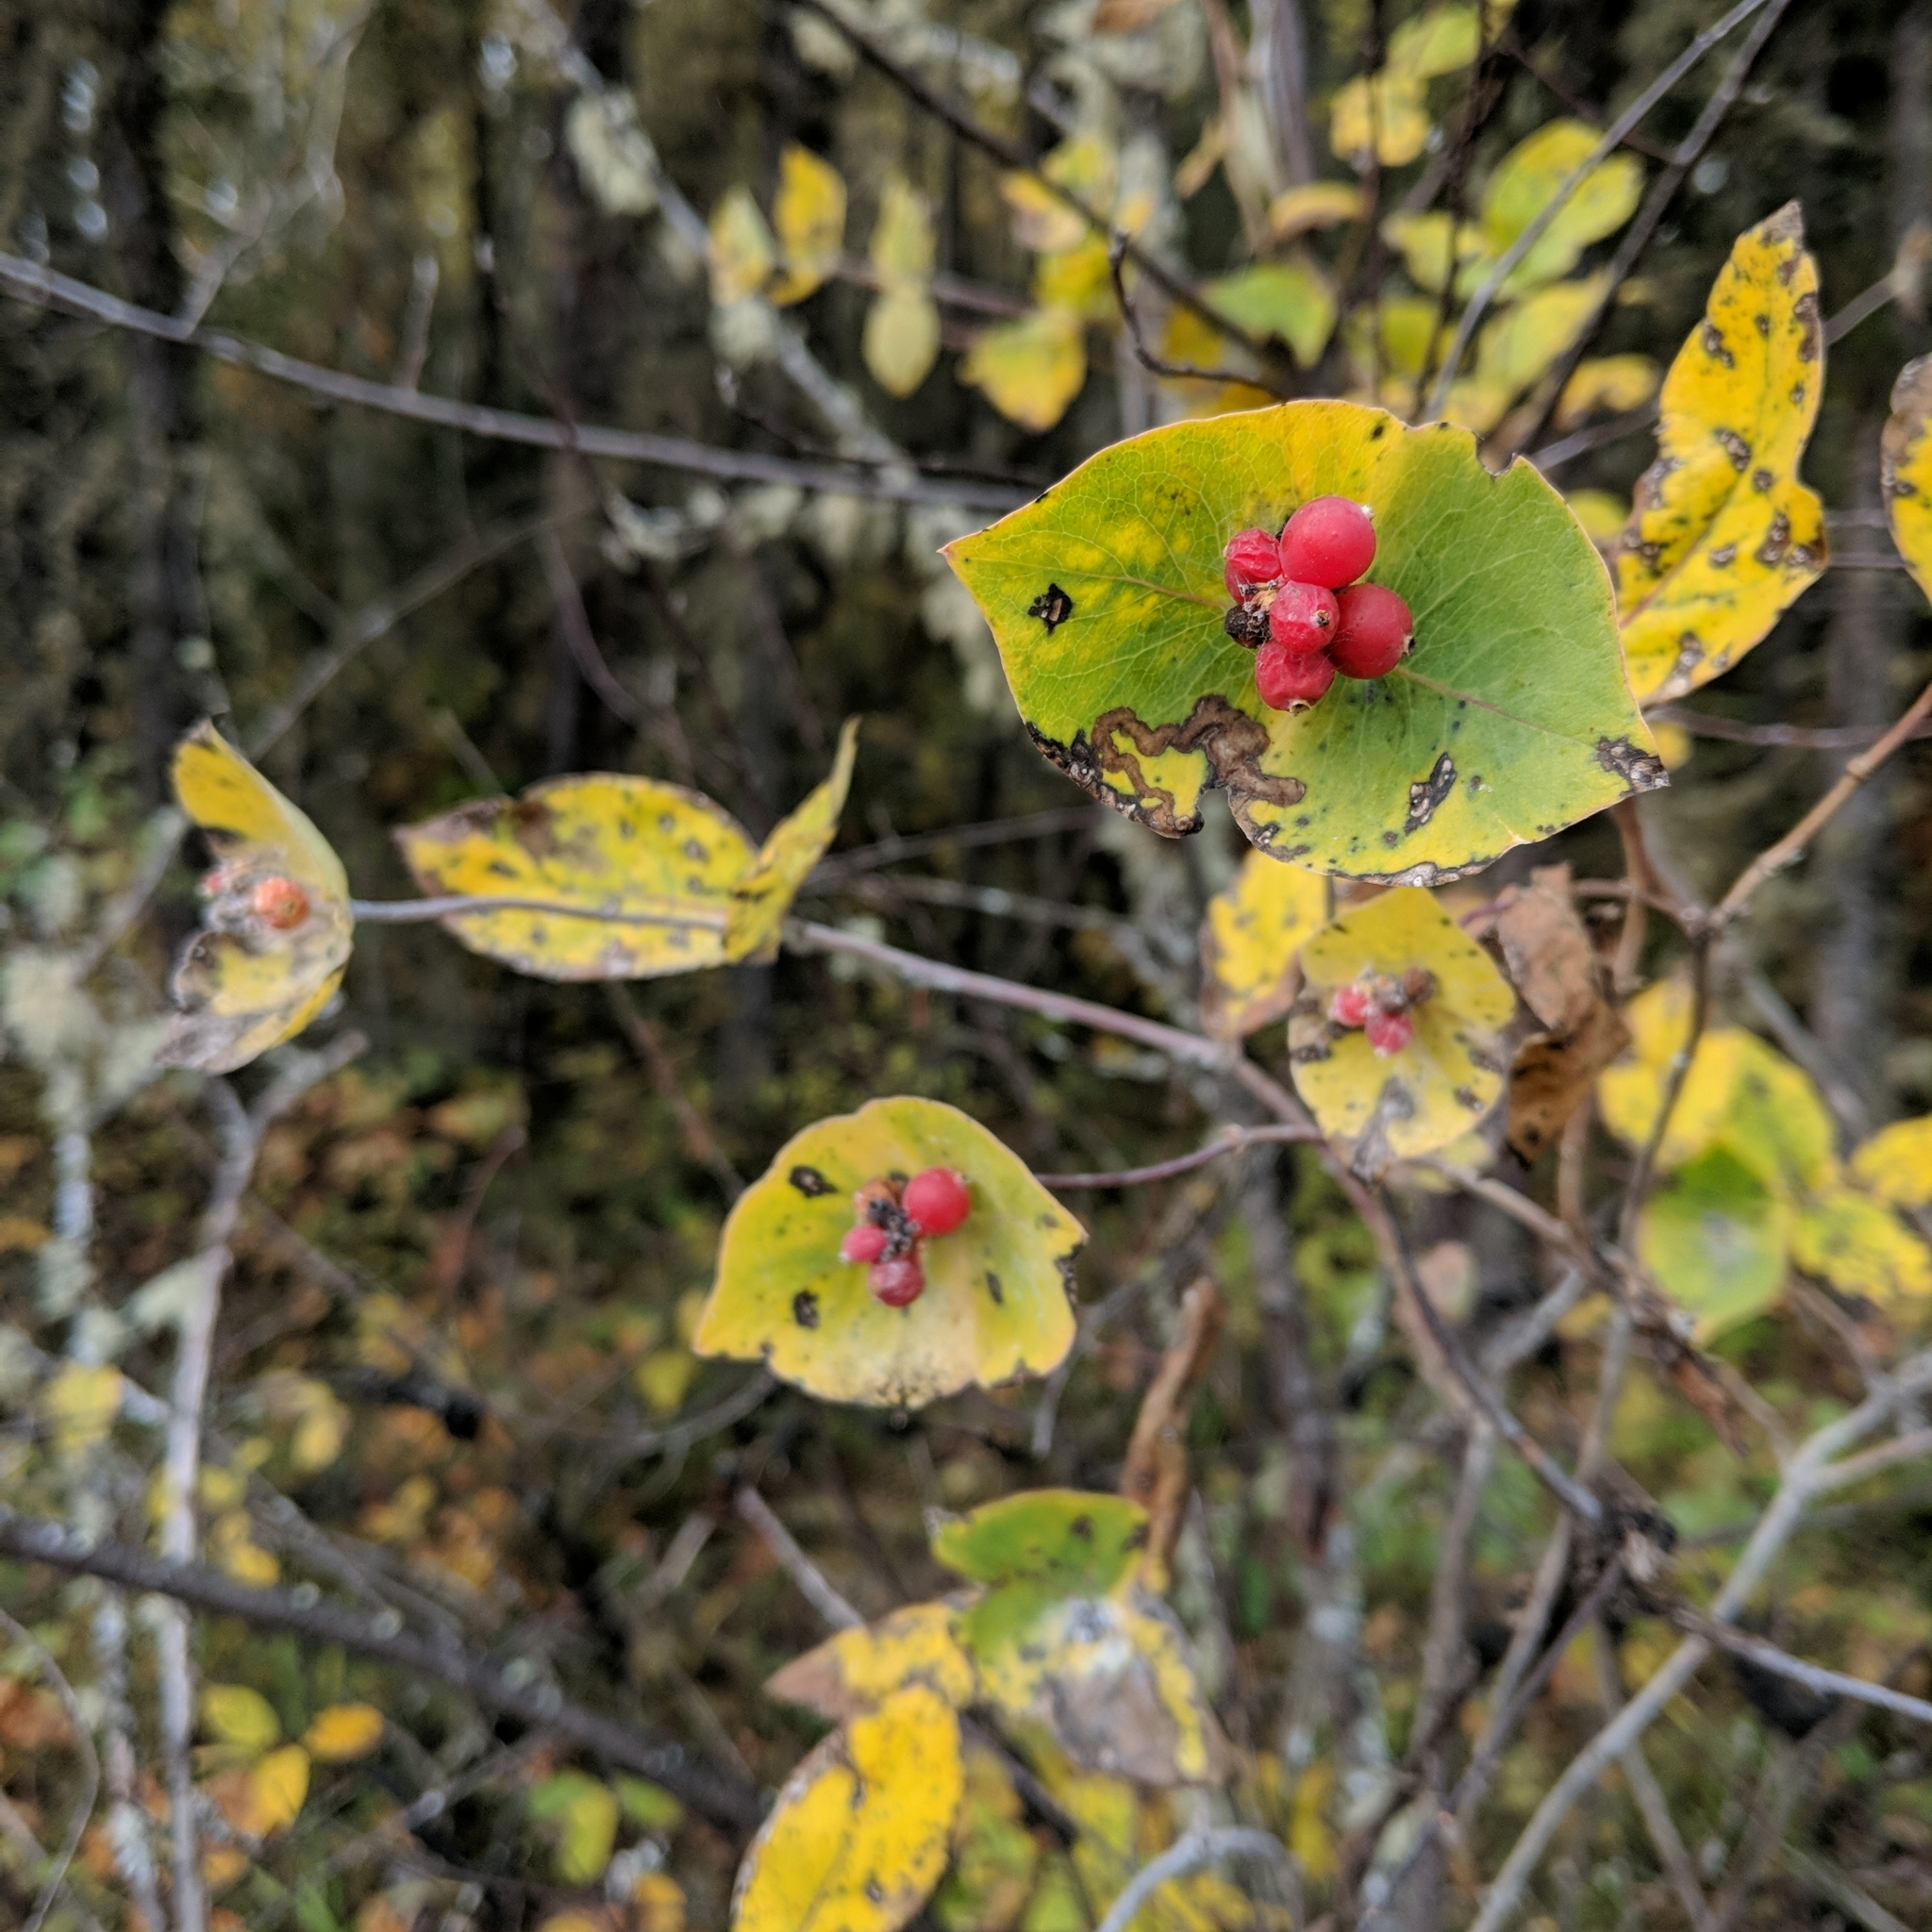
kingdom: Plantae
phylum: Tracheophyta
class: Magnoliopsida
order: Dipsacales
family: Caprifoliaceae
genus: Lonicera
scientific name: Lonicera dioica
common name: Limber honeysuckle
